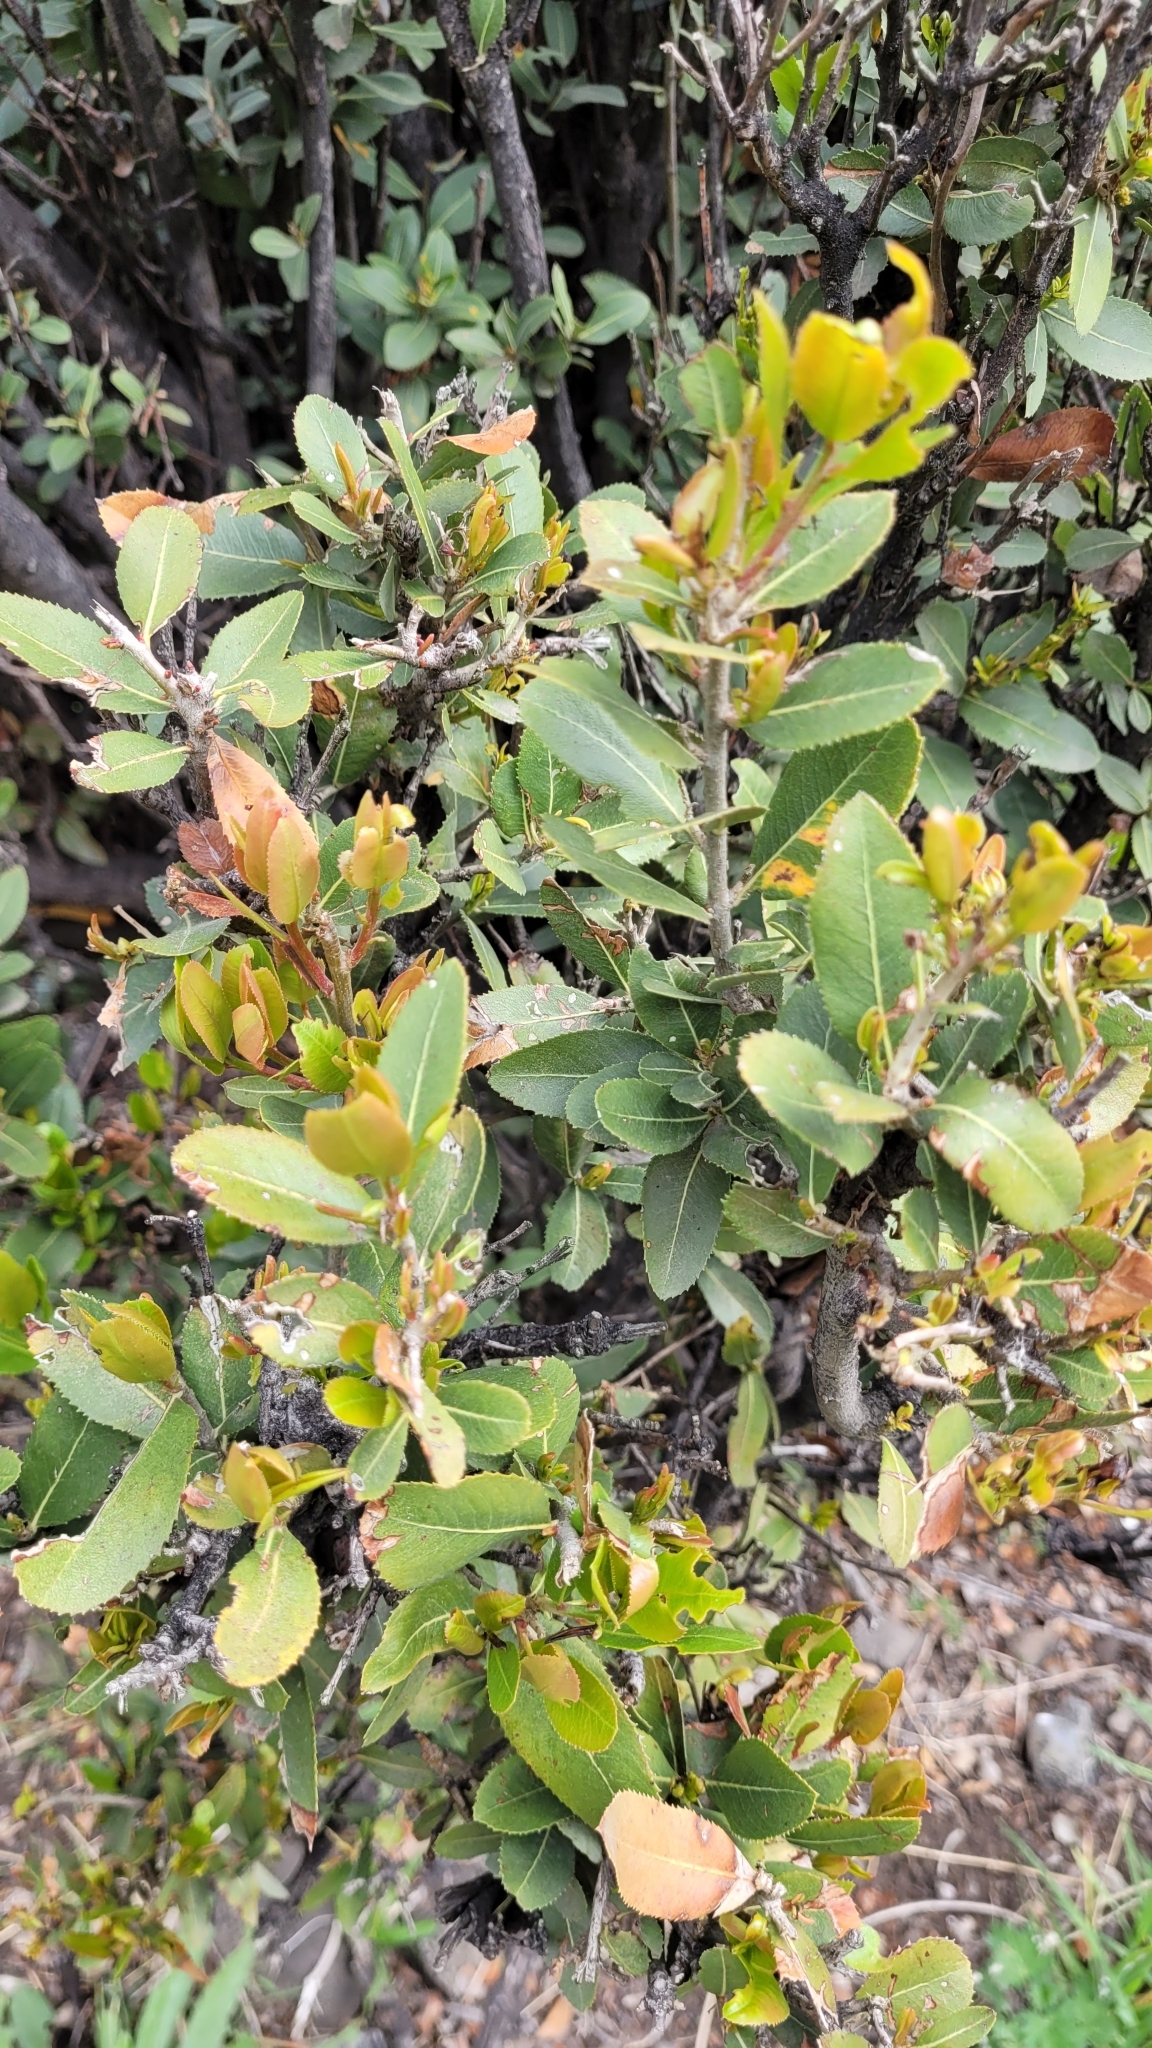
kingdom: Plantae
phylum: Tracheophyta
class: Magnoliopsida
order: Rosales
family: Rosaceae
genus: Kageneckia
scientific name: Kageneckia oblonga
